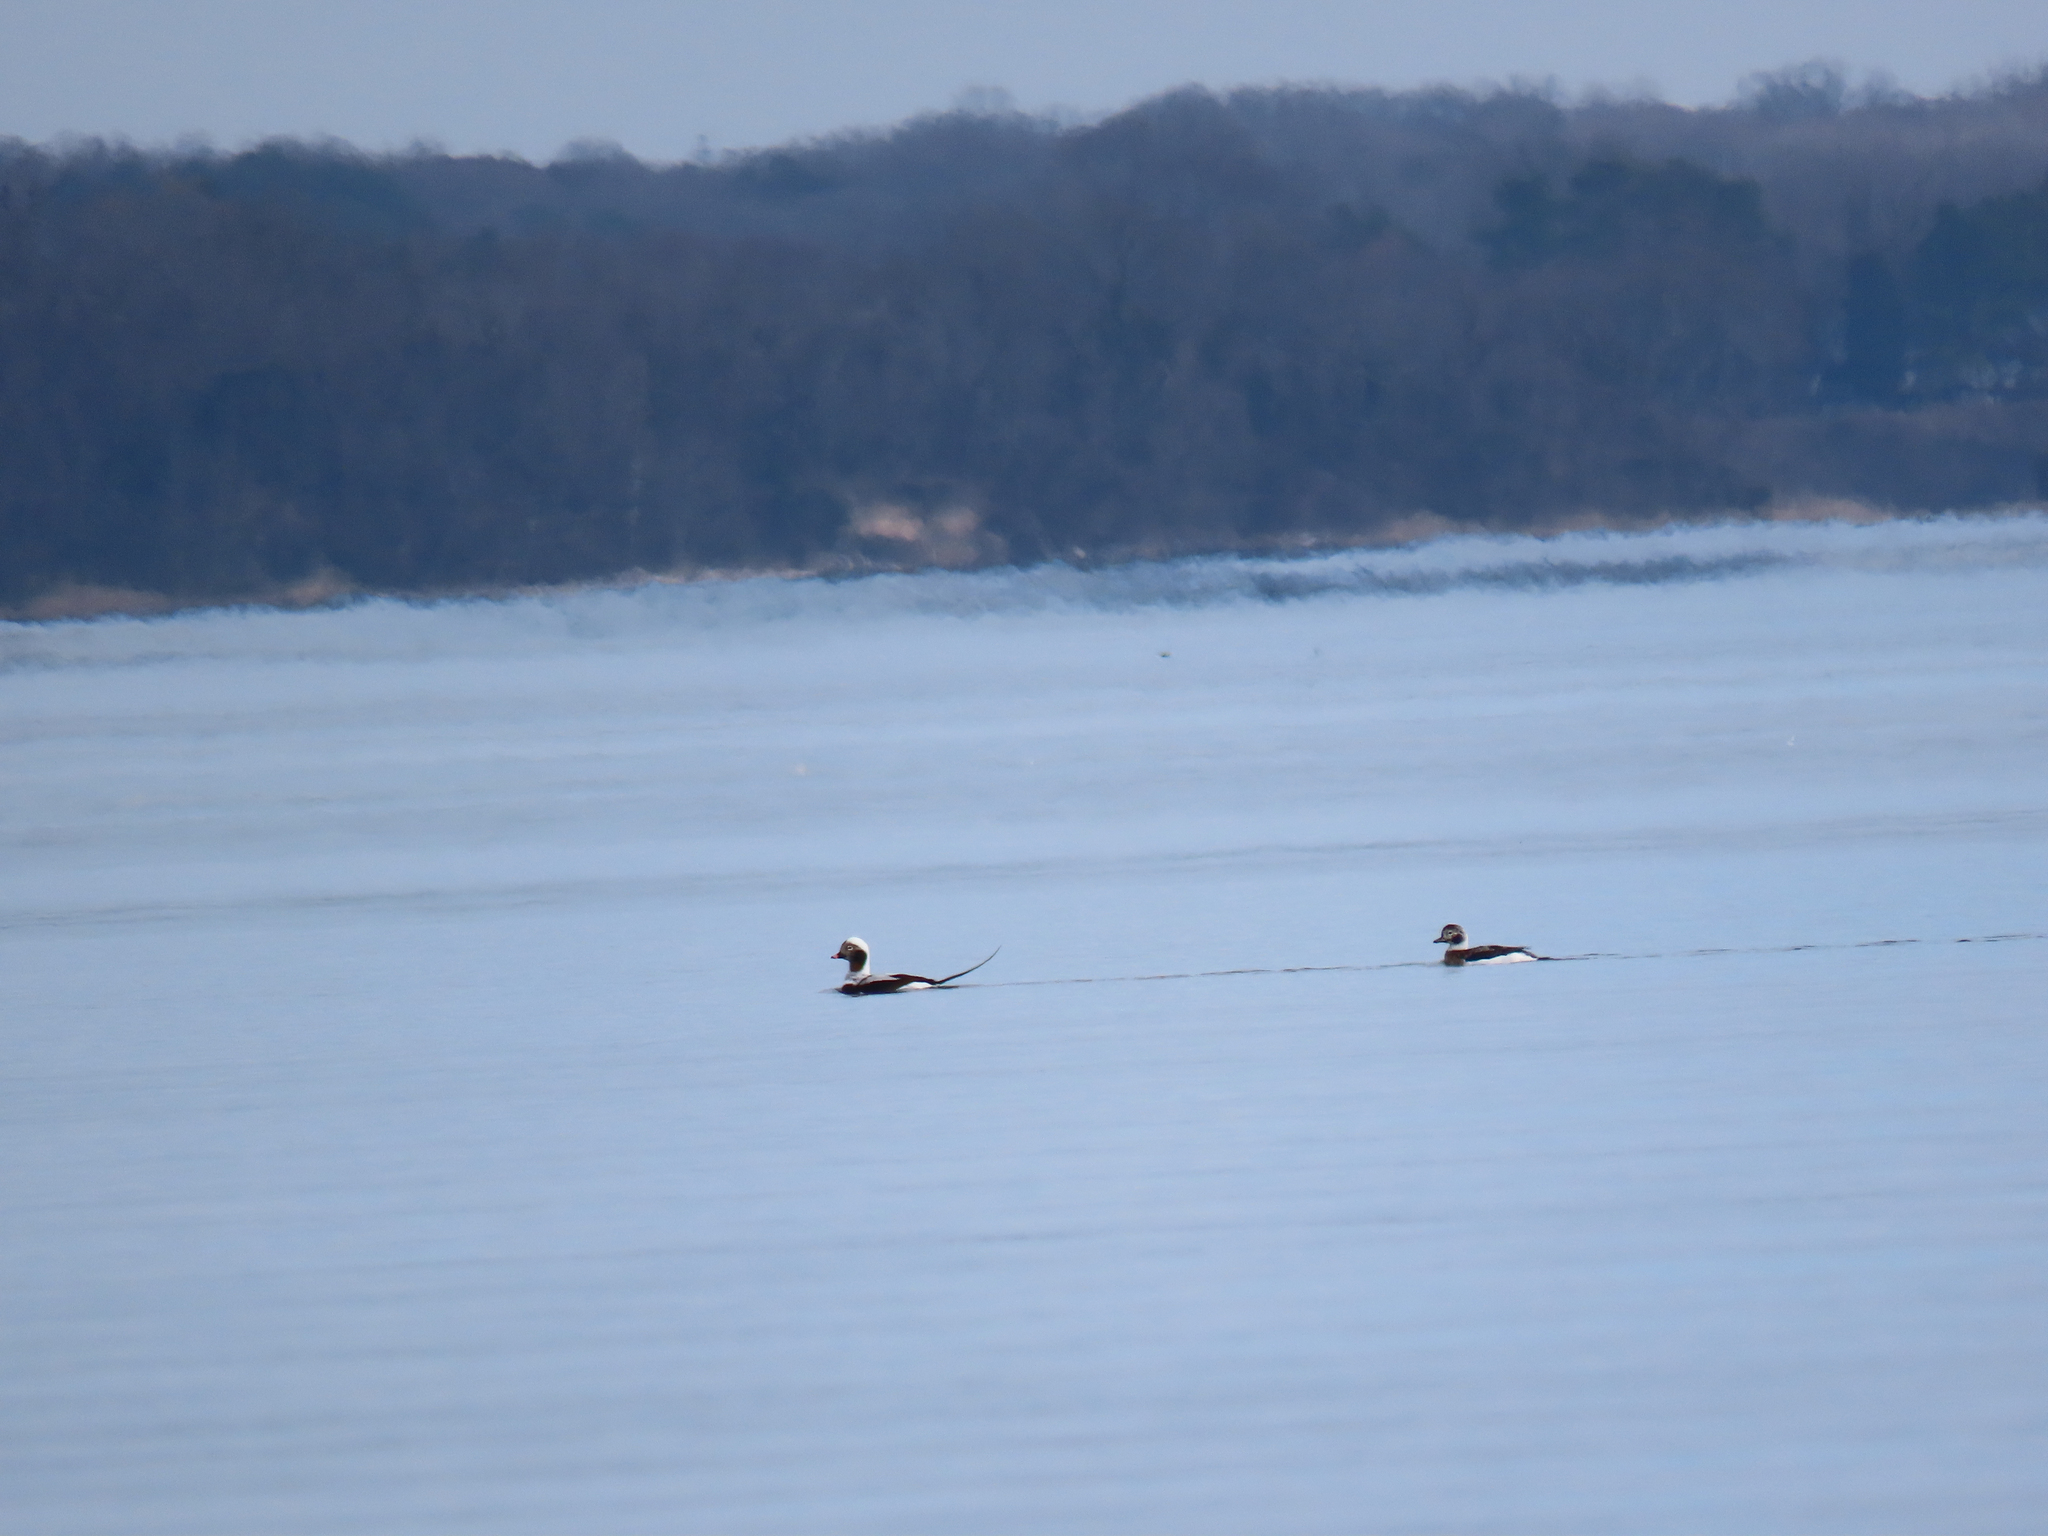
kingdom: Animalia
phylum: Chordata
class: Aves
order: Anseriformes
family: Anatidae
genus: Clangula
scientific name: Clangula hyemalis
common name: Long-tailed duck
